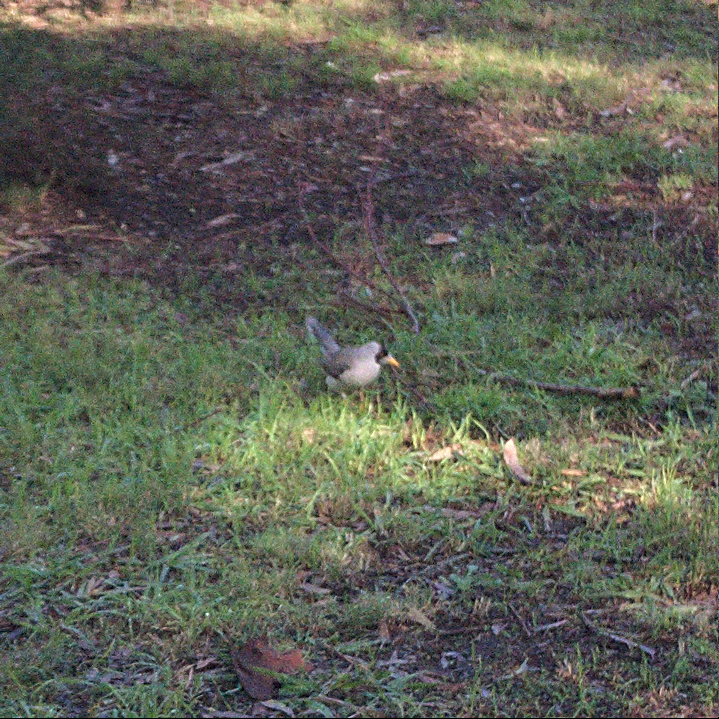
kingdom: Animalia
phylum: Chordata
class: Aves
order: Passeriformes
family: Meliphagidae
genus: Manorina
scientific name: Manorina melanocephala
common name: Noisy miner
